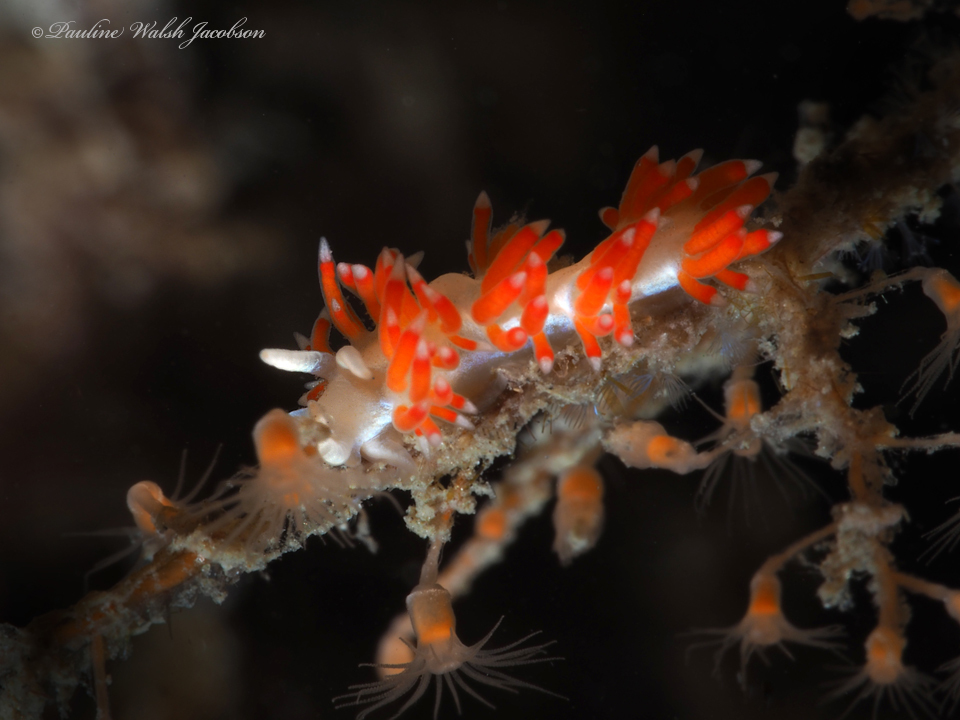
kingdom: Animalia
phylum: Mollusca
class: Gastropoda
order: Nudibranchia
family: Flabellinidae
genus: Flabellina
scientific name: Flabellina dushia
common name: Dushia flabellina
